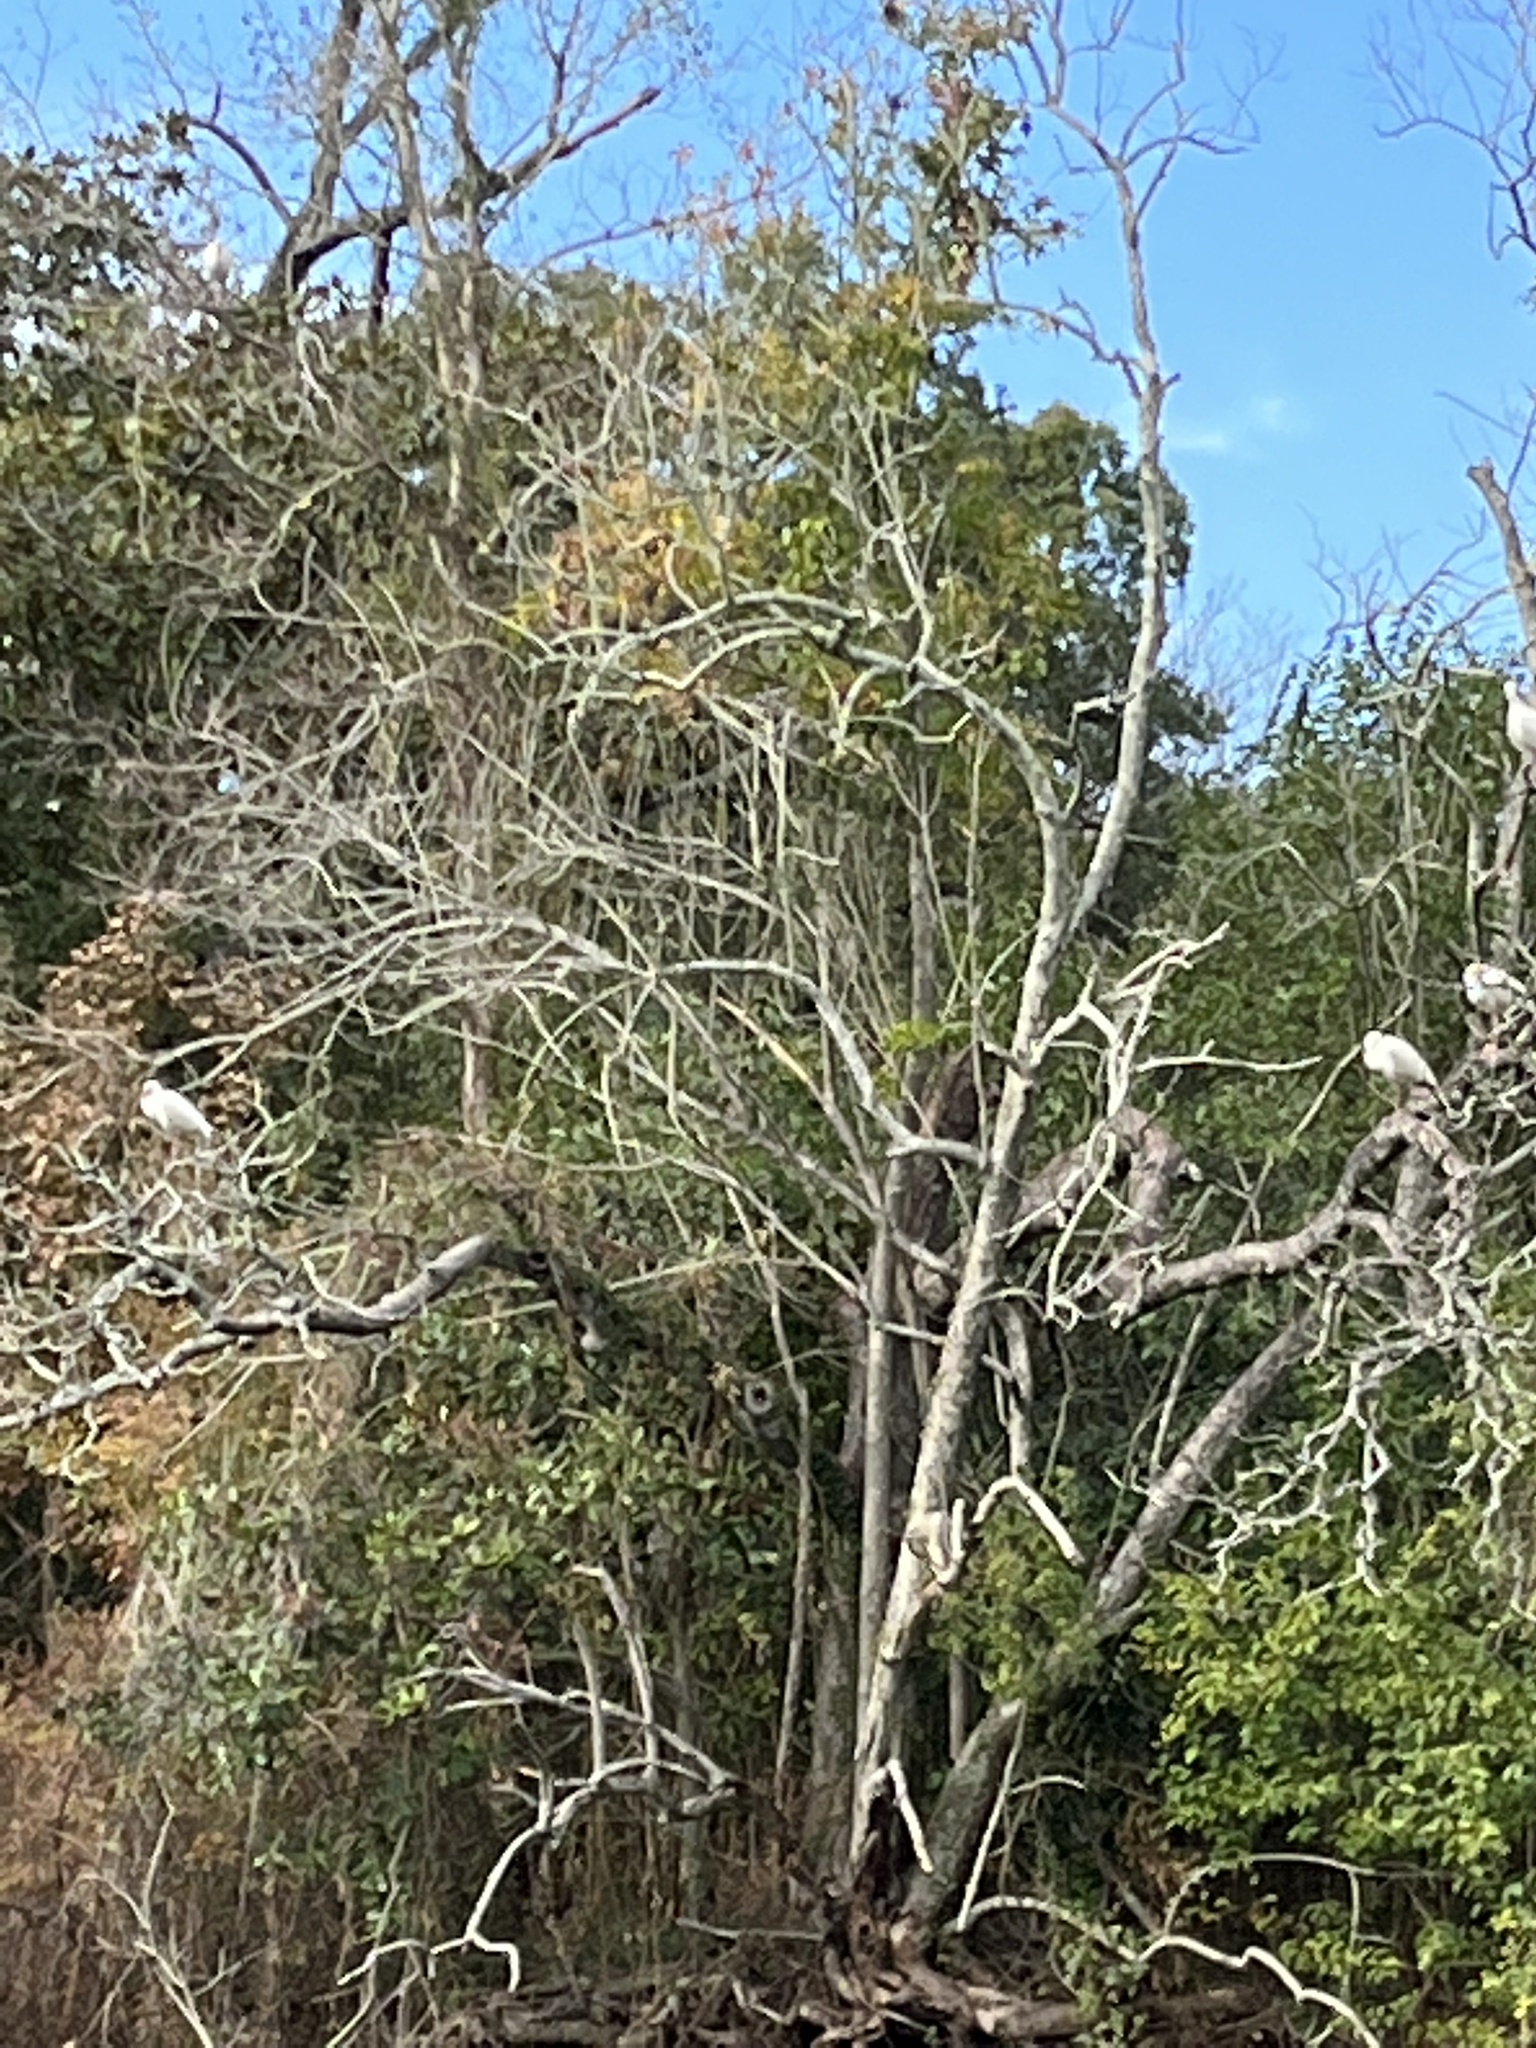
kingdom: Animalia
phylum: Chordata
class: Aves
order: Pelecaniformes
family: Threskiornithidae
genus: Eudocimus
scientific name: Eudocimus albus
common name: White ibis
